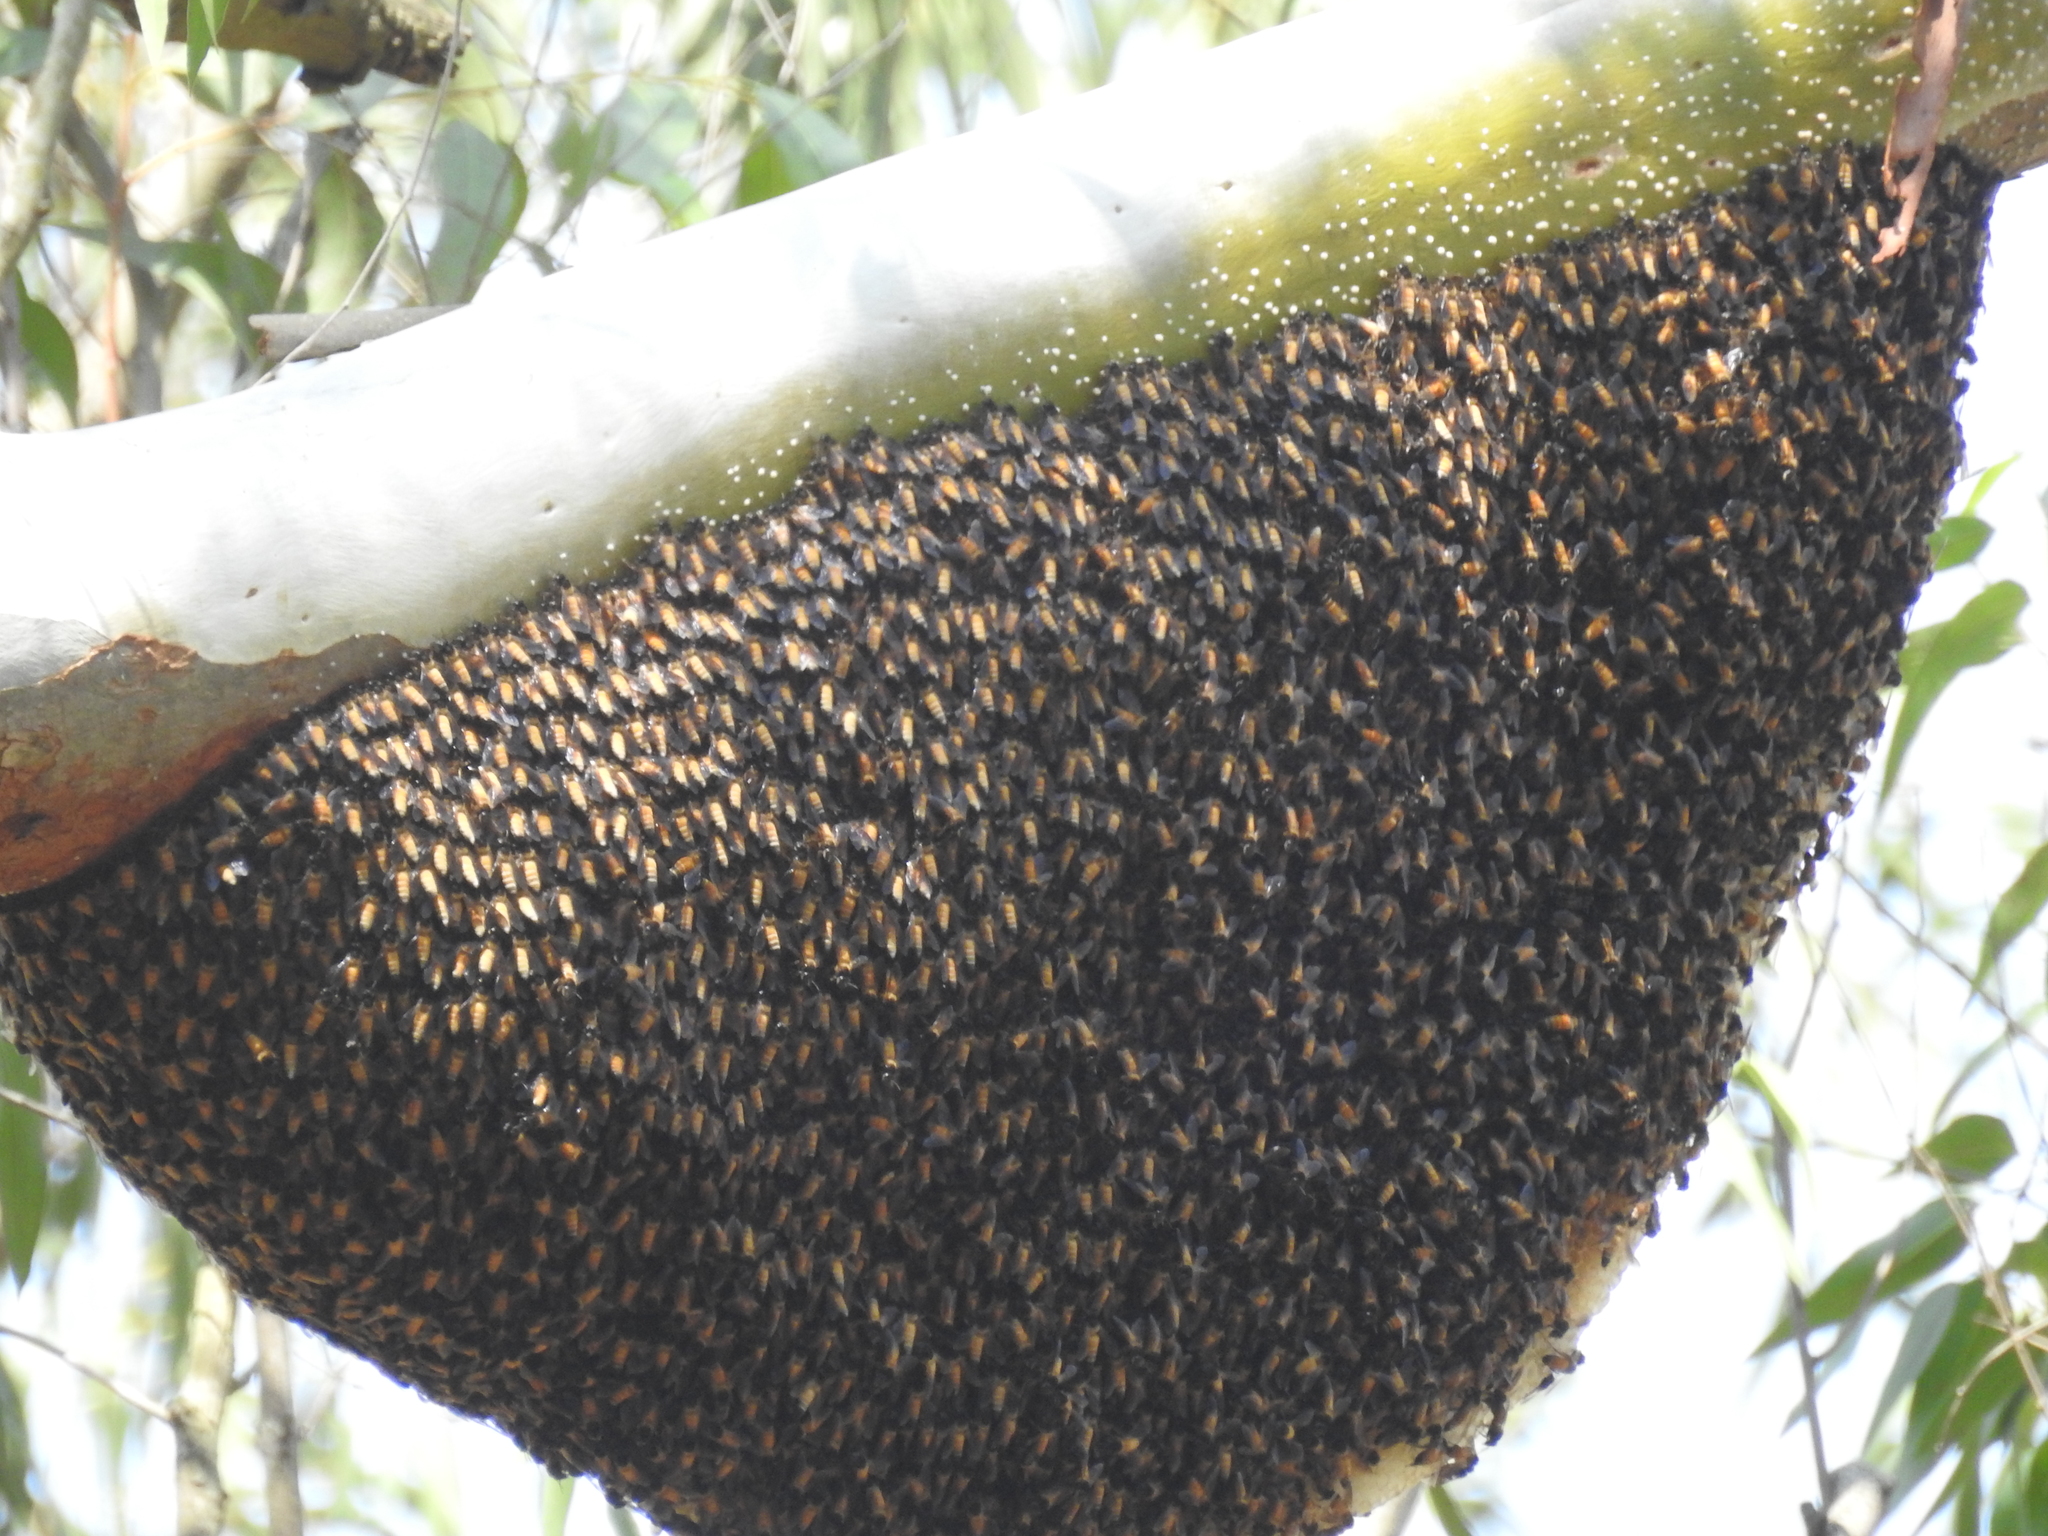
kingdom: Animalia
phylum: Arthropoda
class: Insecta
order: Hymenoptera
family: Apidae
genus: Apis
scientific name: Apis dorsata
